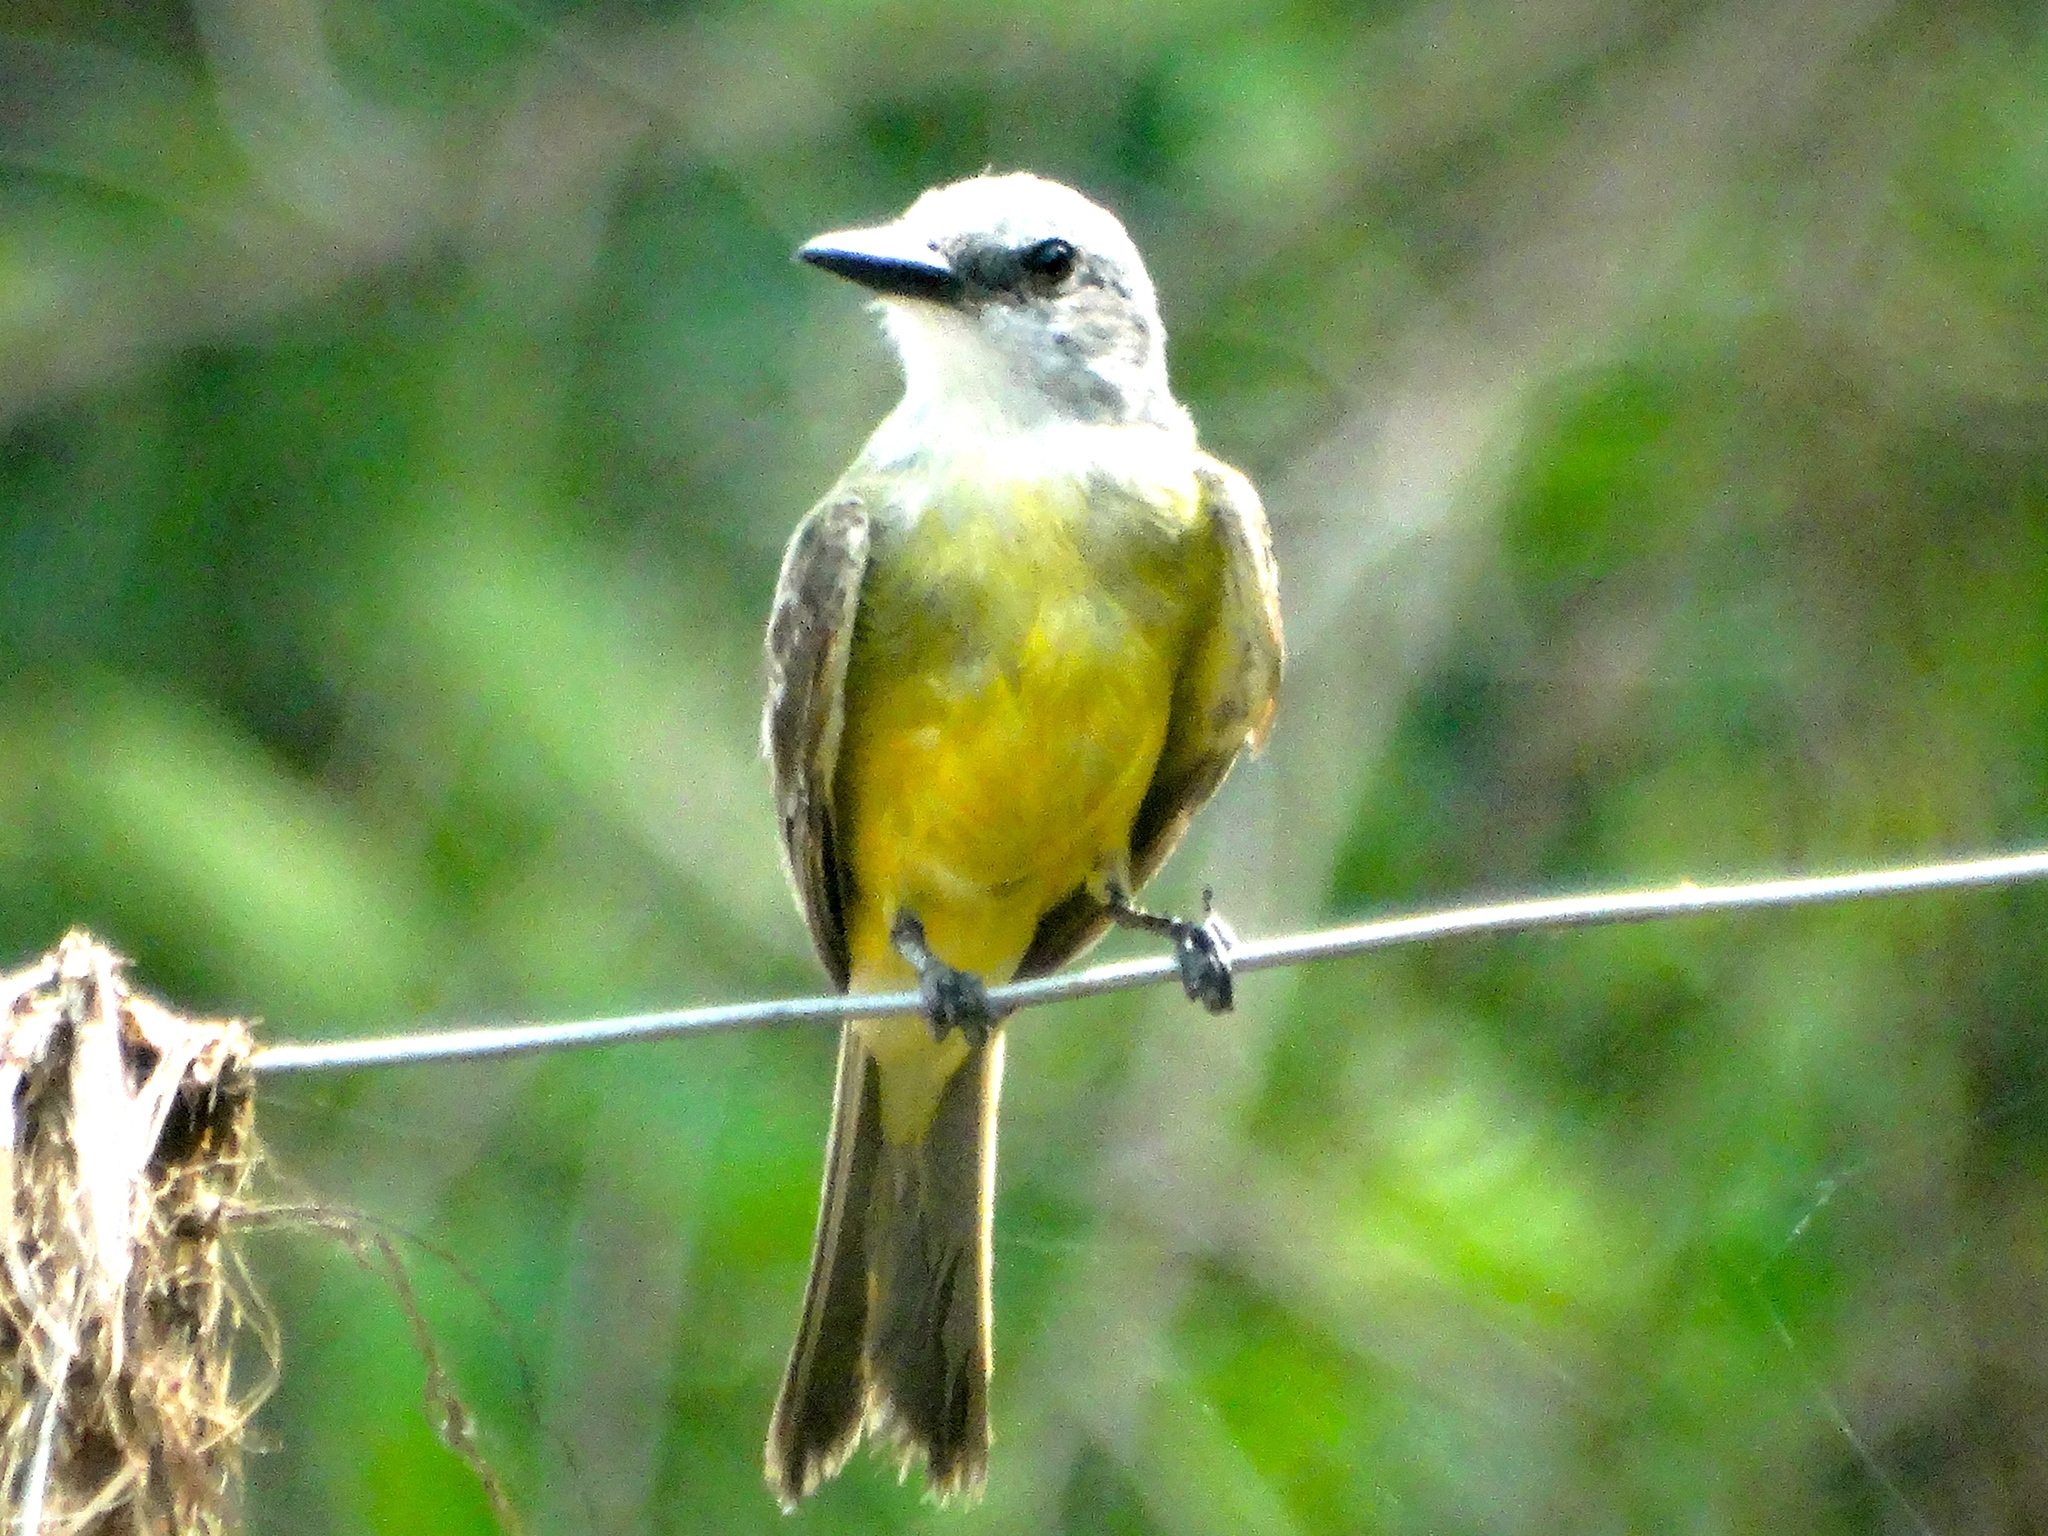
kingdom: Animalia
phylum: Chordata
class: Aves
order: Passeriformes
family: Tyrannidae
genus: Tyrannus
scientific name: Tyrannus melancholicus
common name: Tropical kingbird
